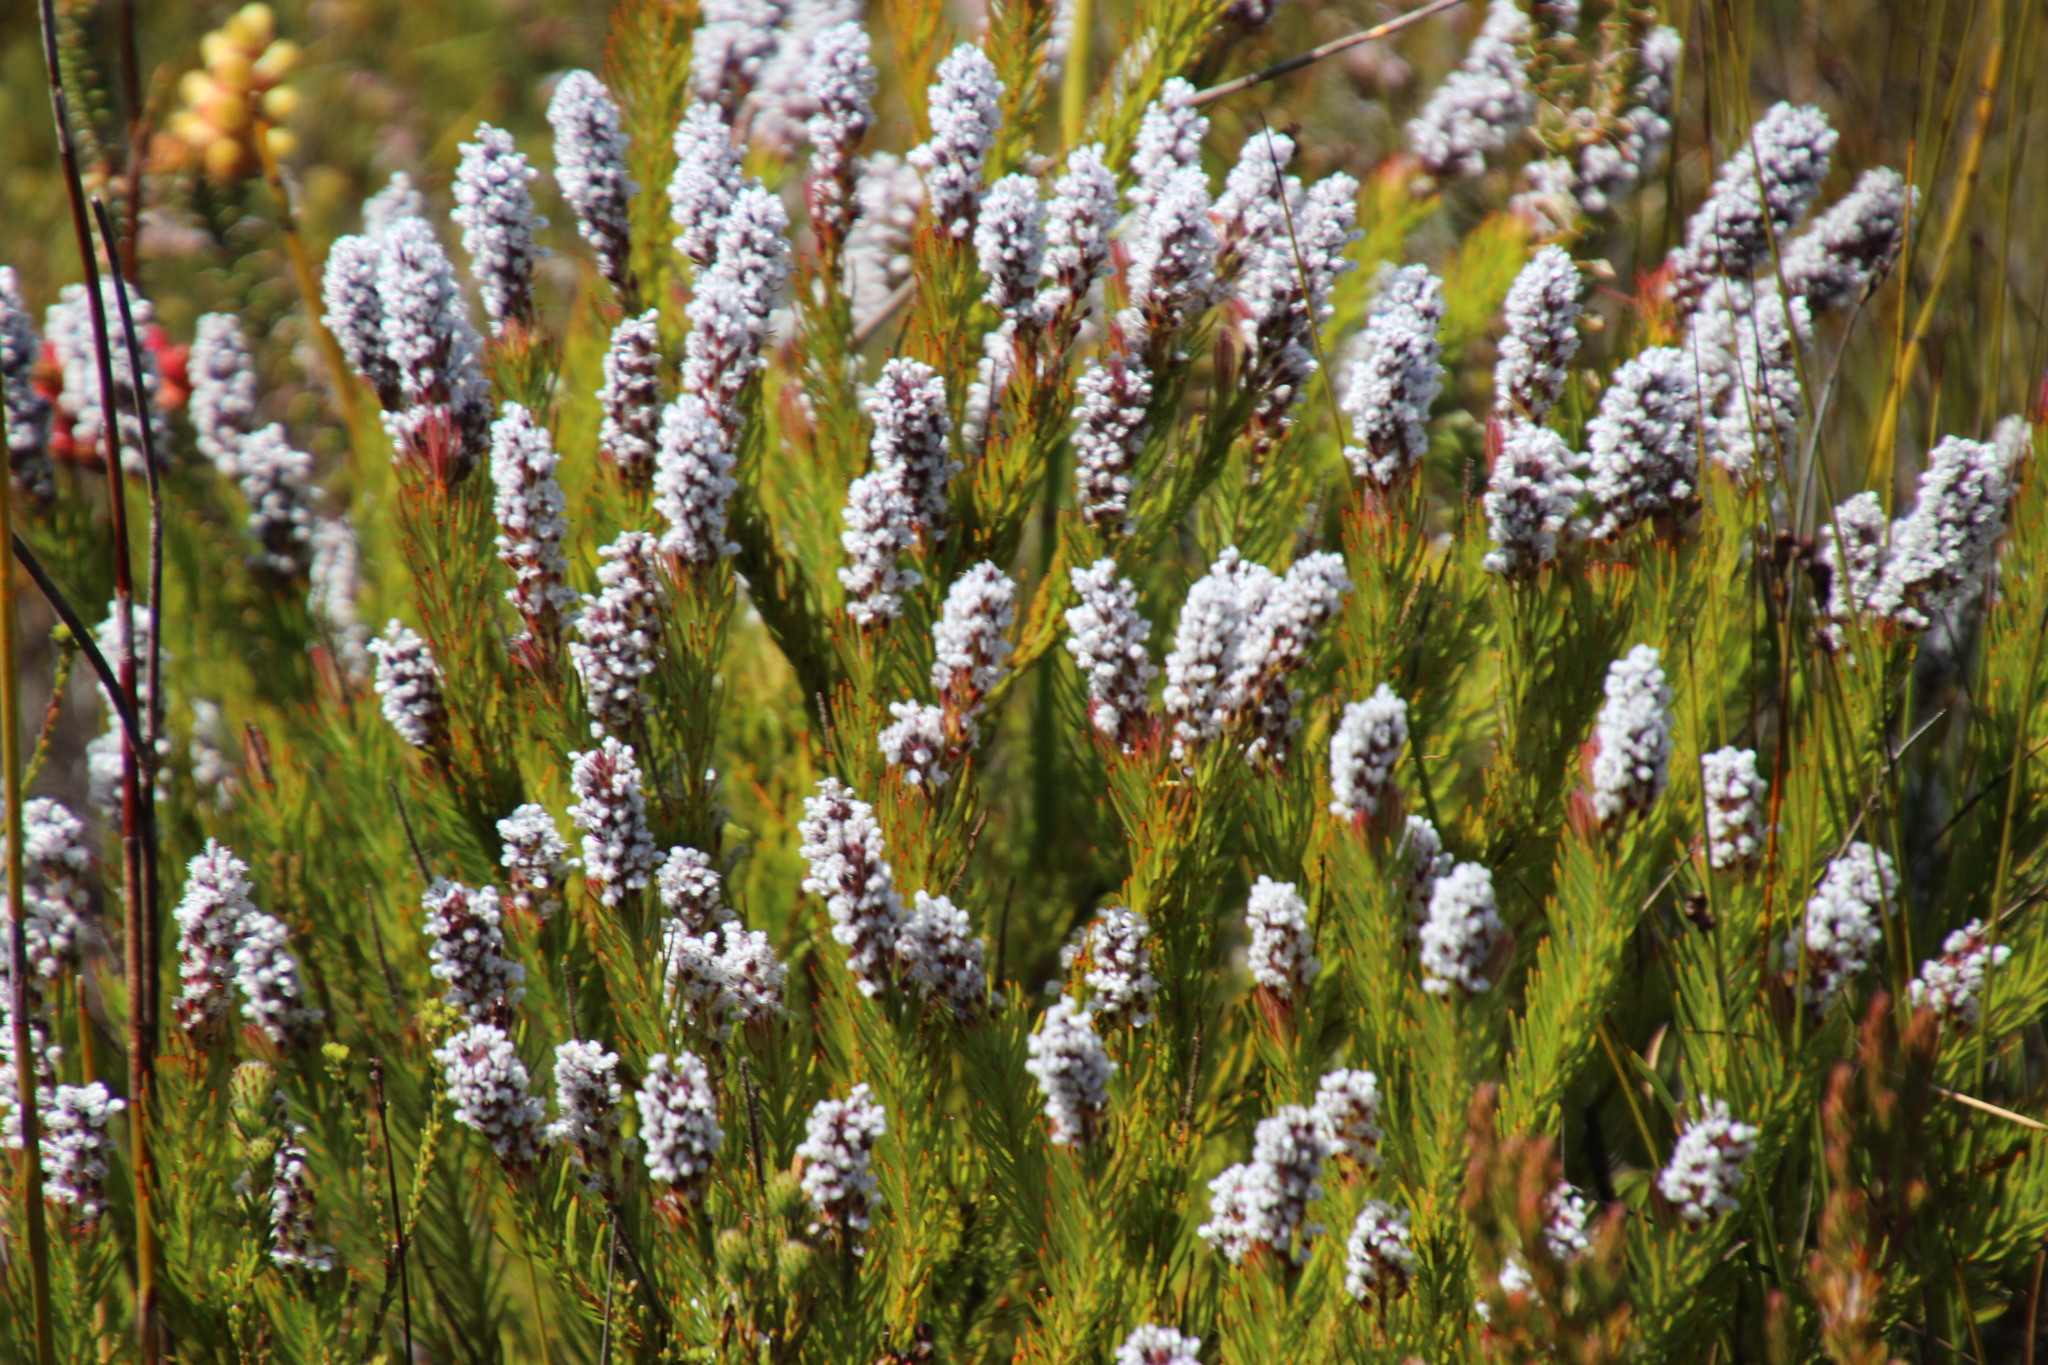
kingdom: Plantae
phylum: Tracheophyta
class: Magnoliopsida
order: Proteales
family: Proteaceae
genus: Spatalla
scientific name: Spatalla mollis
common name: Woolly spoon
